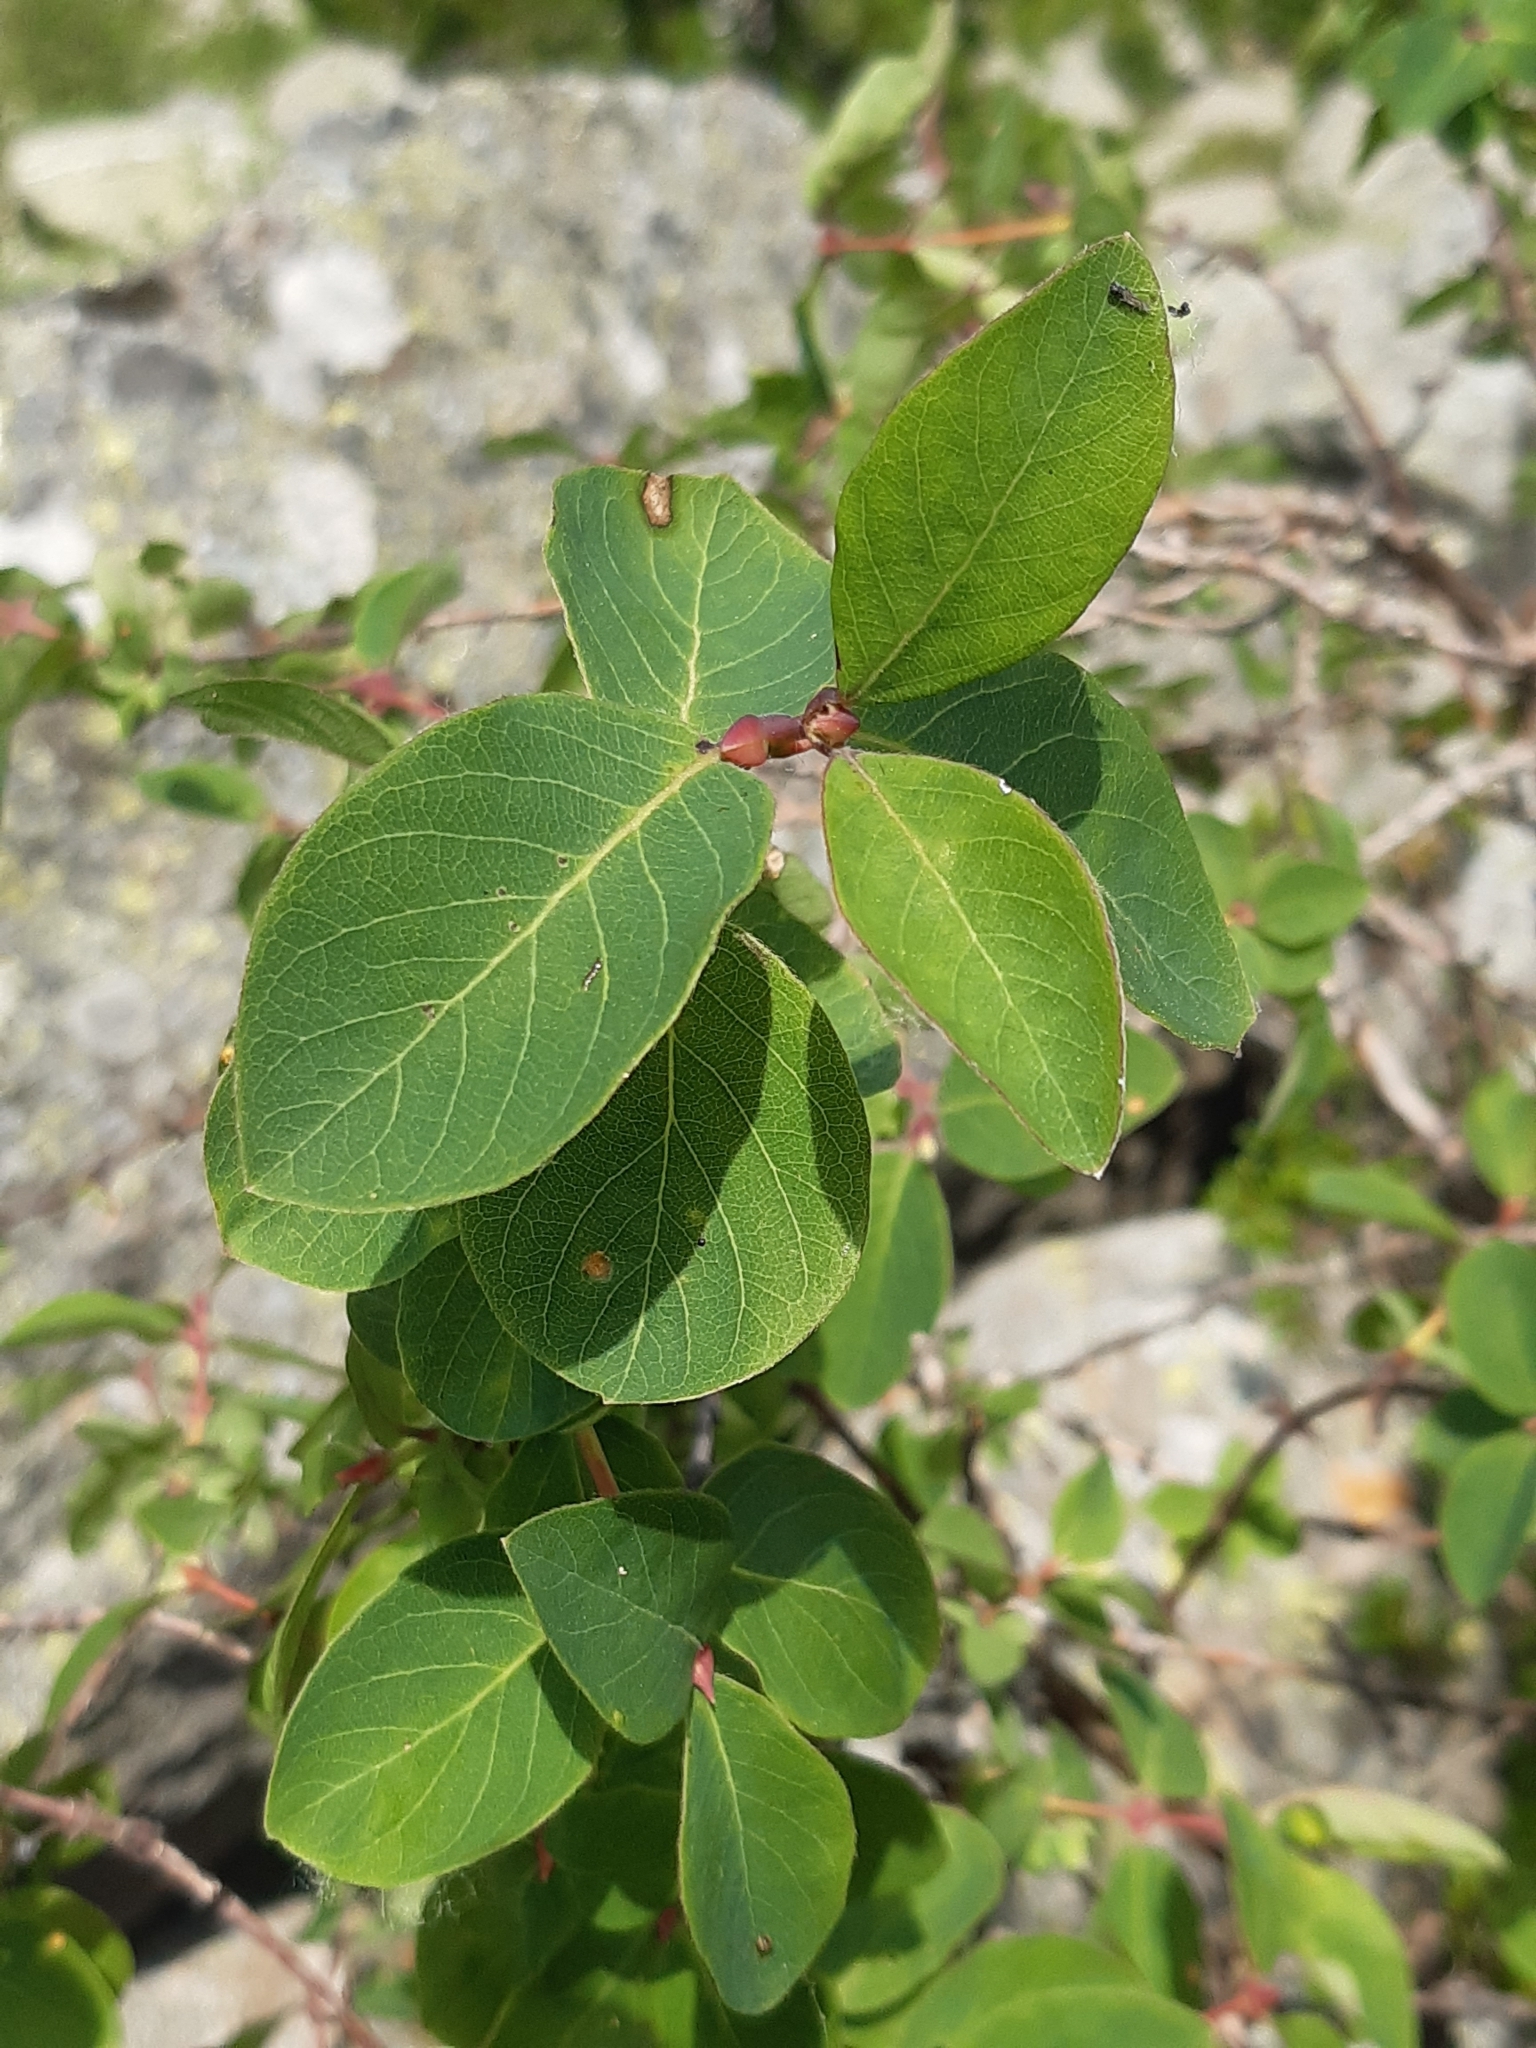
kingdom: Plantae
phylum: Tracheophyta
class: Magnoliopsida
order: Dipsacales
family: Caprifoliaceae
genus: Lonicera
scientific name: Lonicera caerulea
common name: Blue honeysuckle
